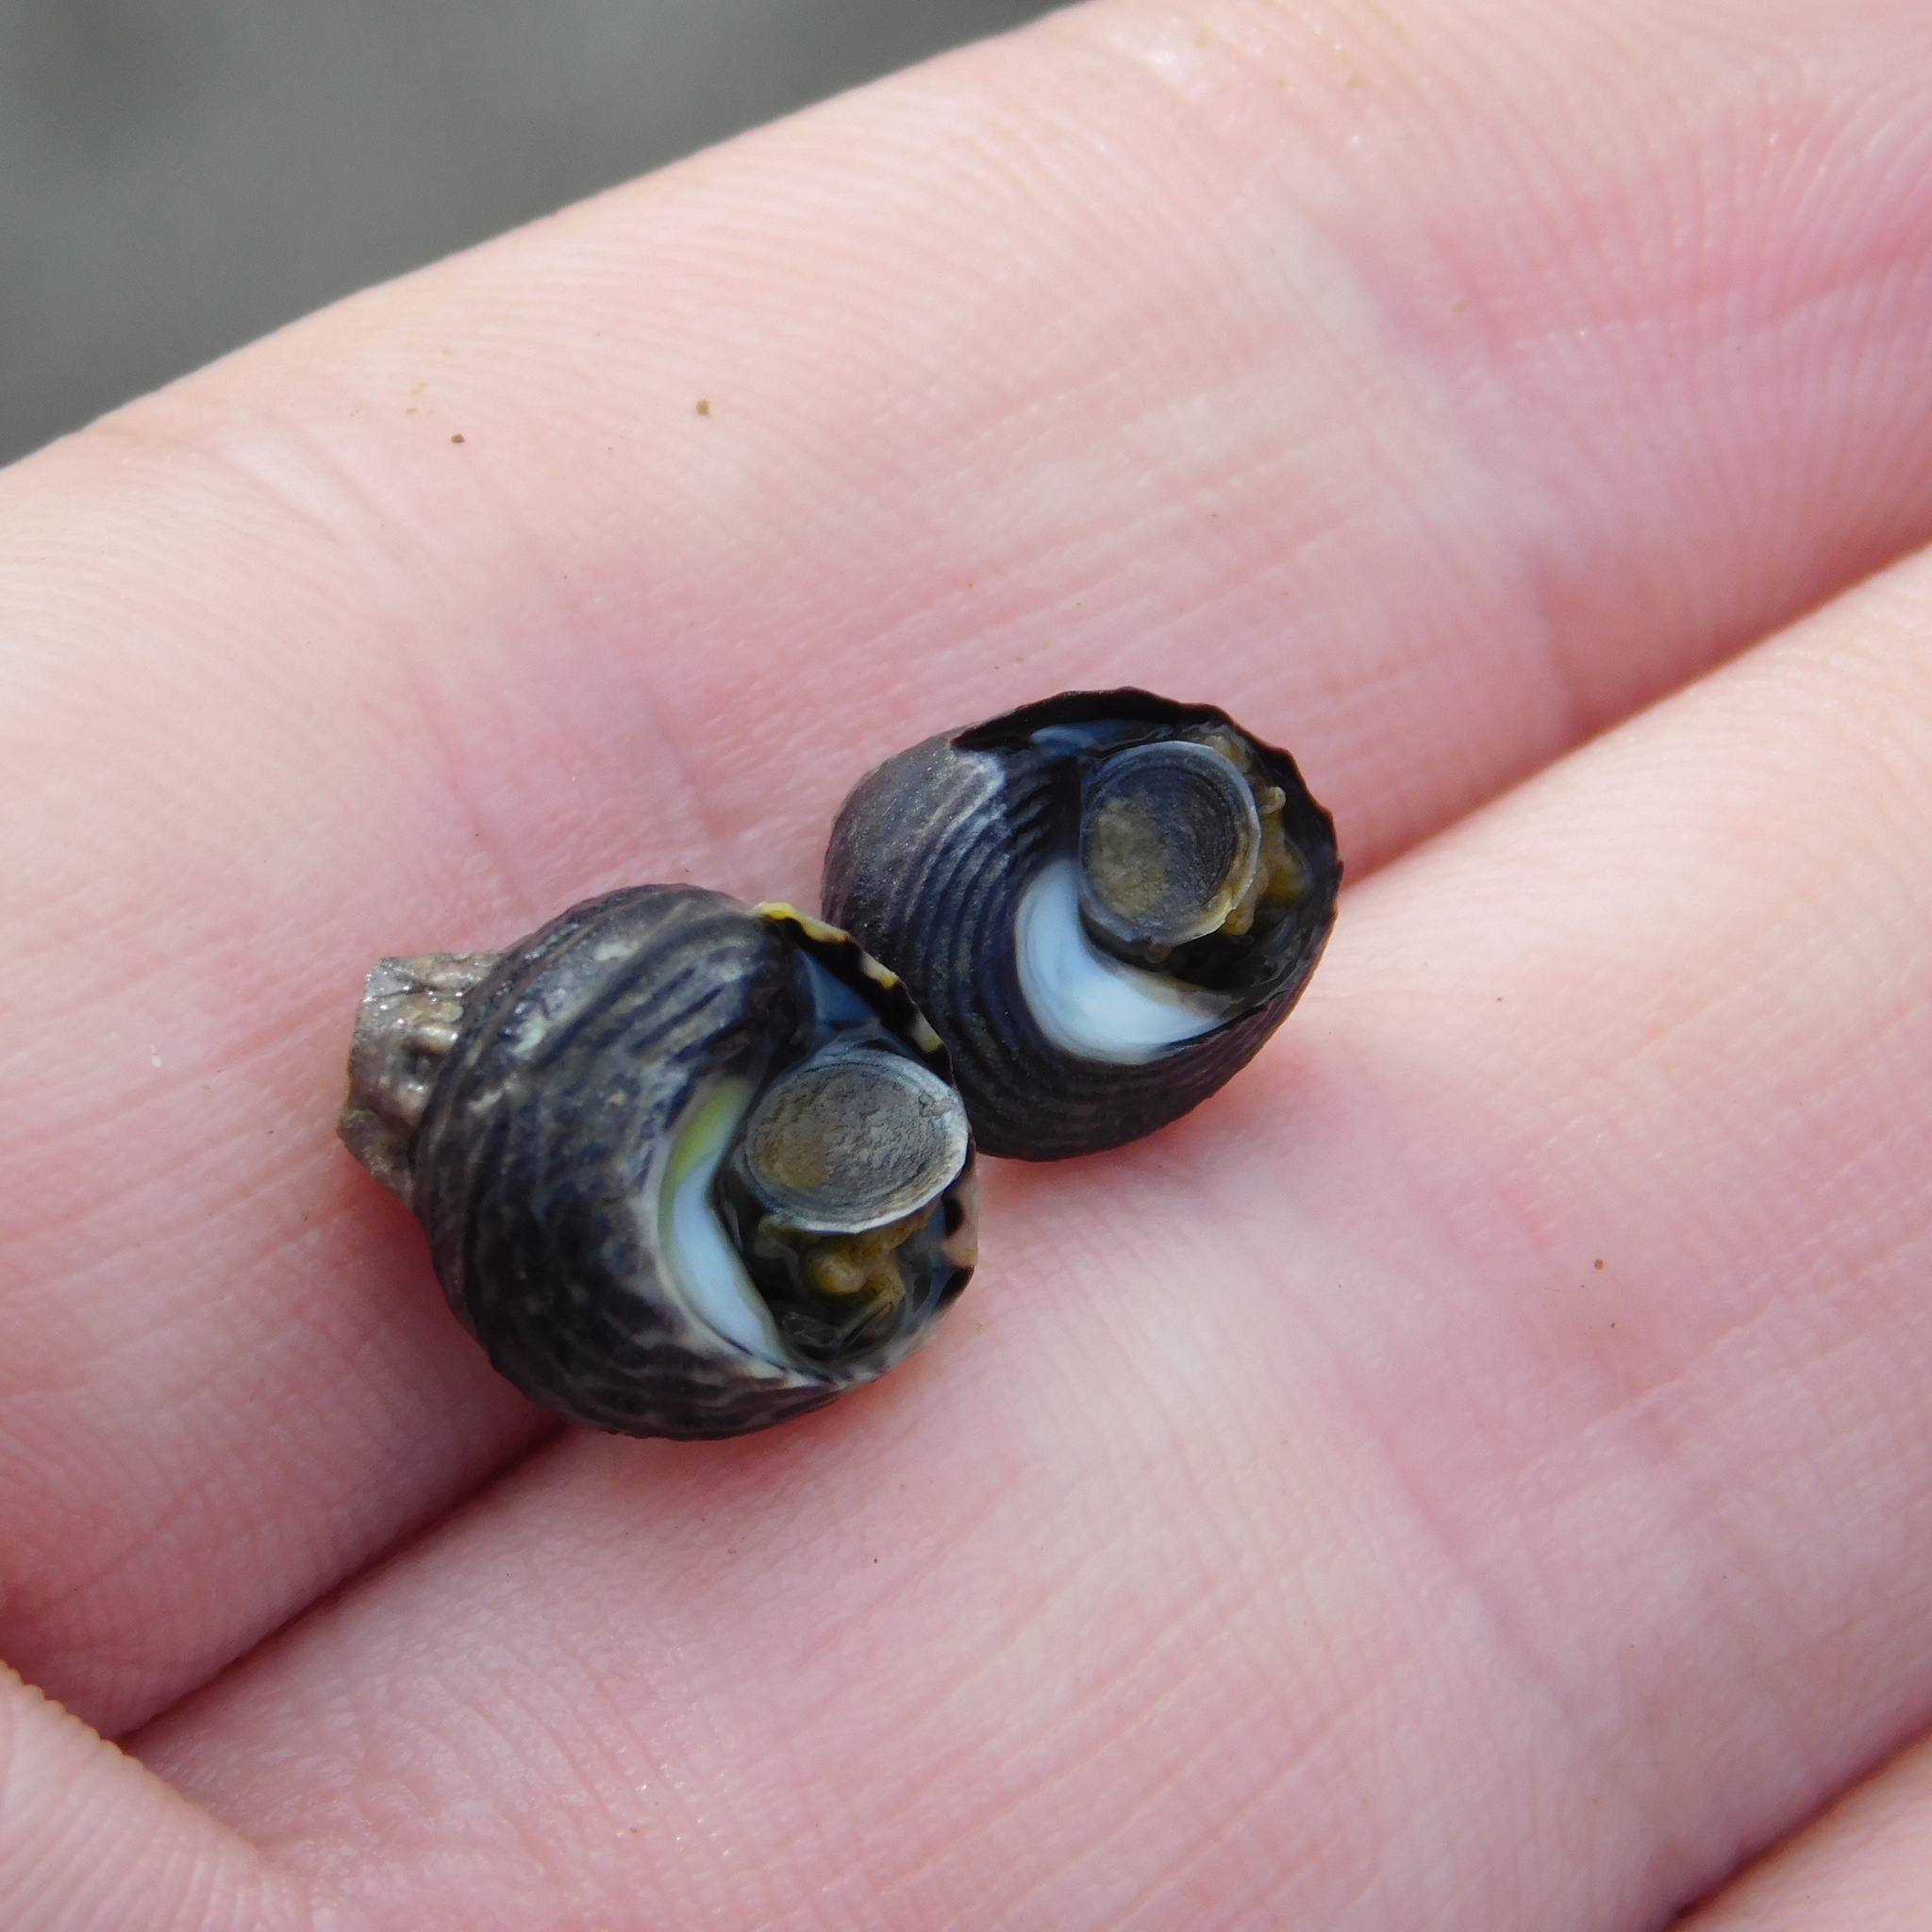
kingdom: Animalia
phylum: Mollusca
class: Gastropoda
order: Trochida
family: Trochidae
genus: Diloma
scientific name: Diloma subrostratum
